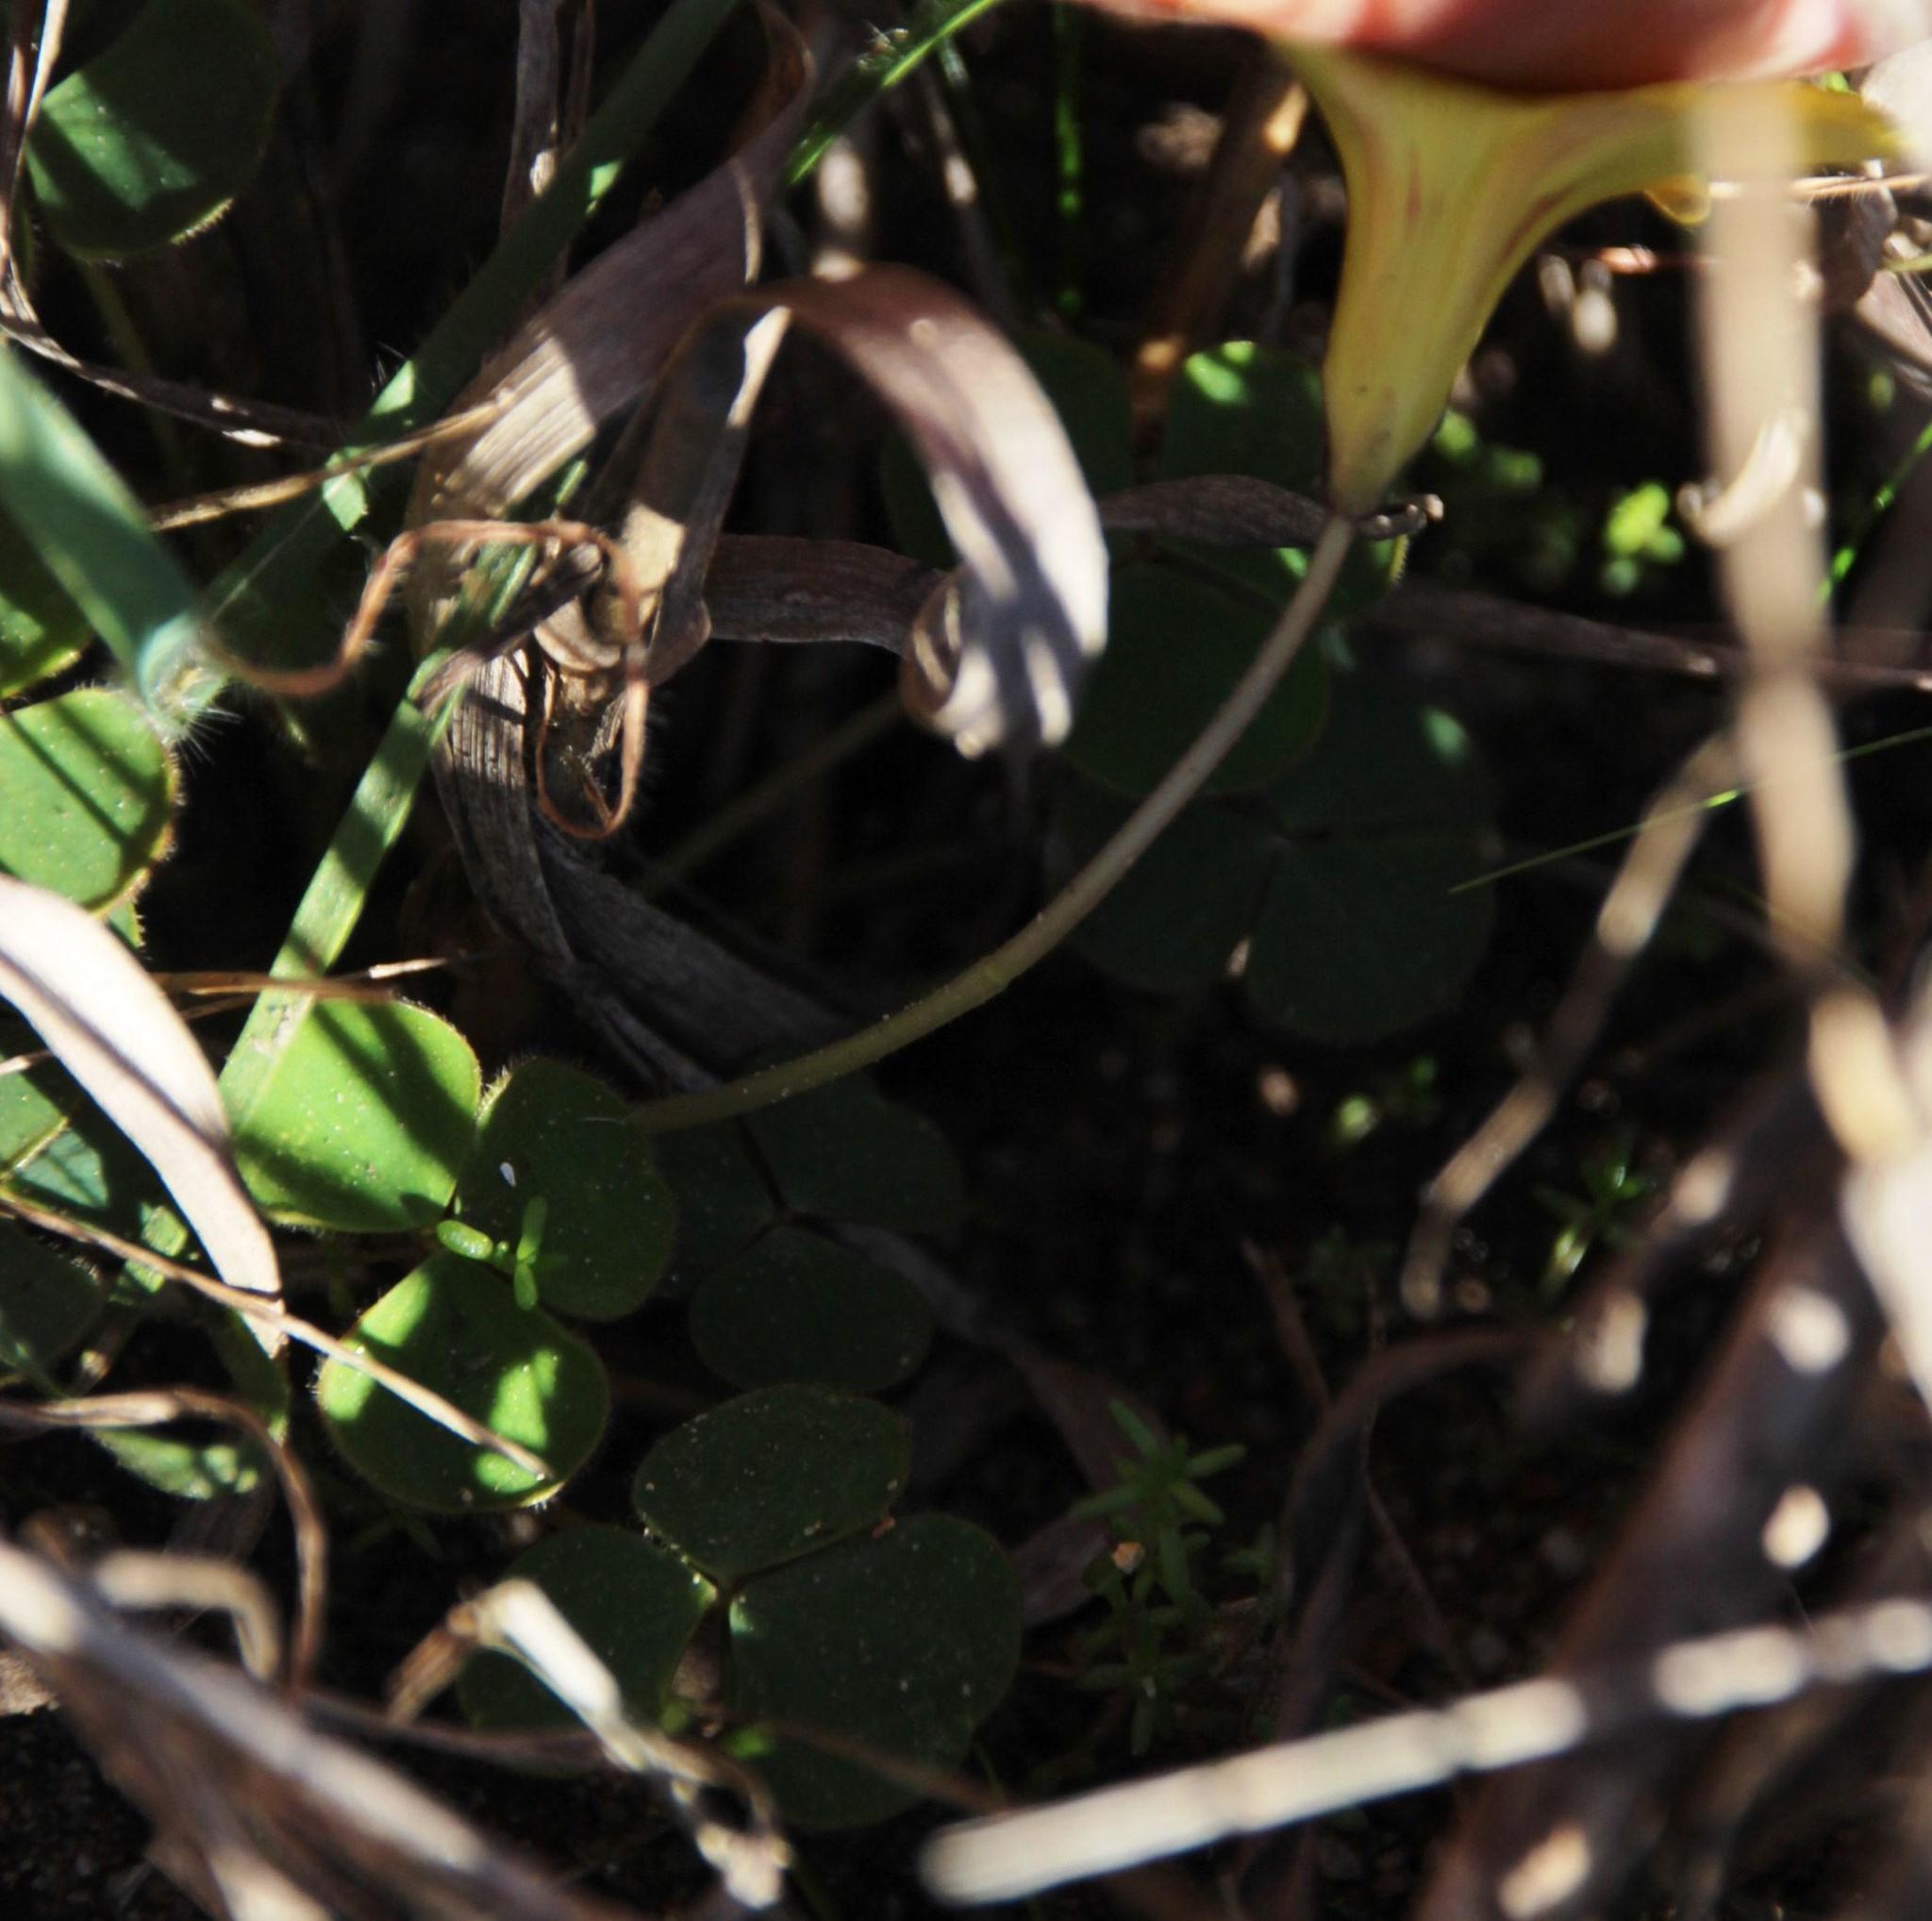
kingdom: Plantae
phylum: Tracheophyta
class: Magnoliopsida
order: Oxalidales
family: Oxalidaceae
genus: Oxalis
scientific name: Oxalis luteola
